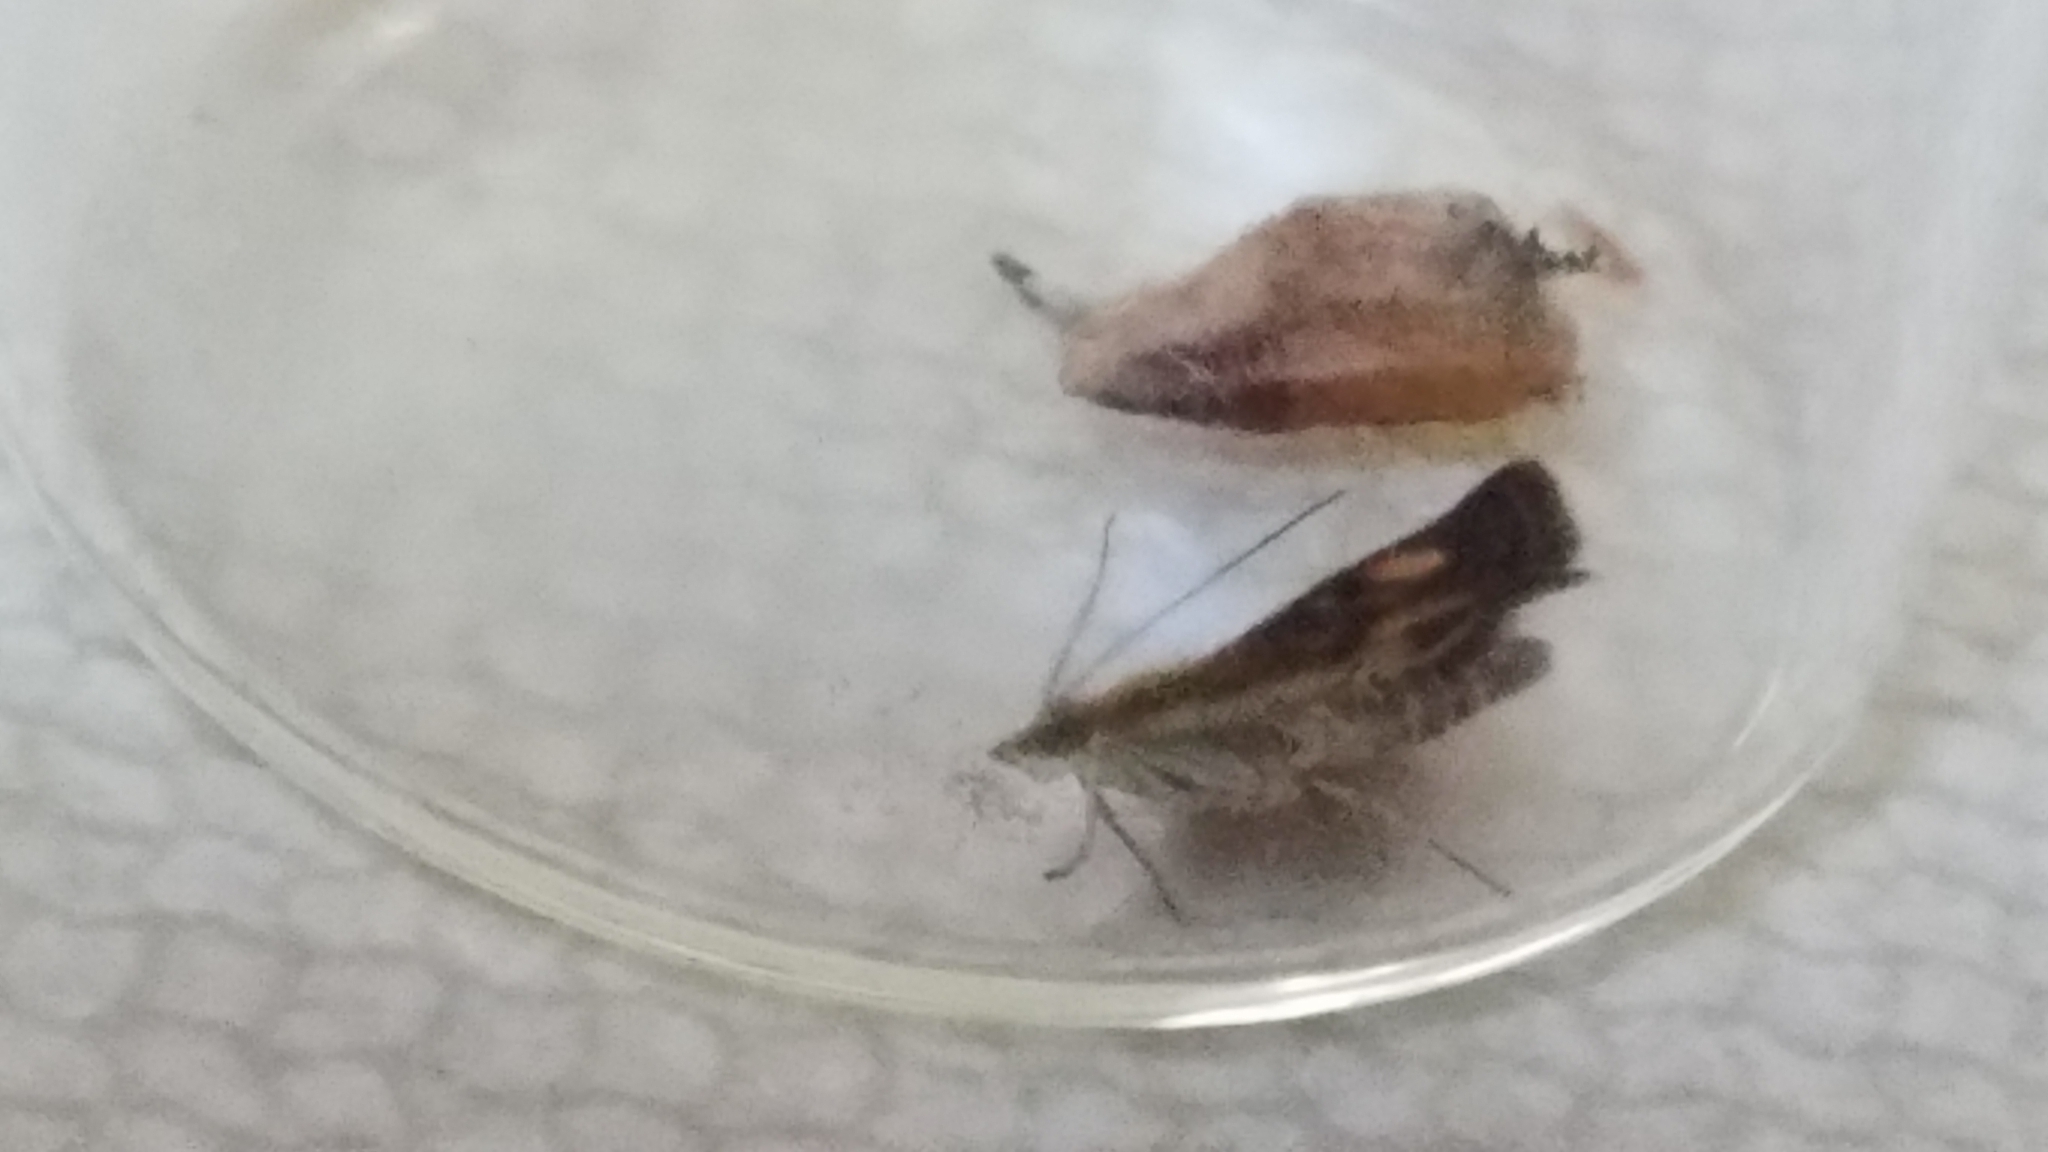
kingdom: Animalia
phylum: Arthropoda
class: Insecta
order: Lepidoptera
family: Crambidae
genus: Pyrausta
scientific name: Pyrausta orphisalis
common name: Orange mint moth
